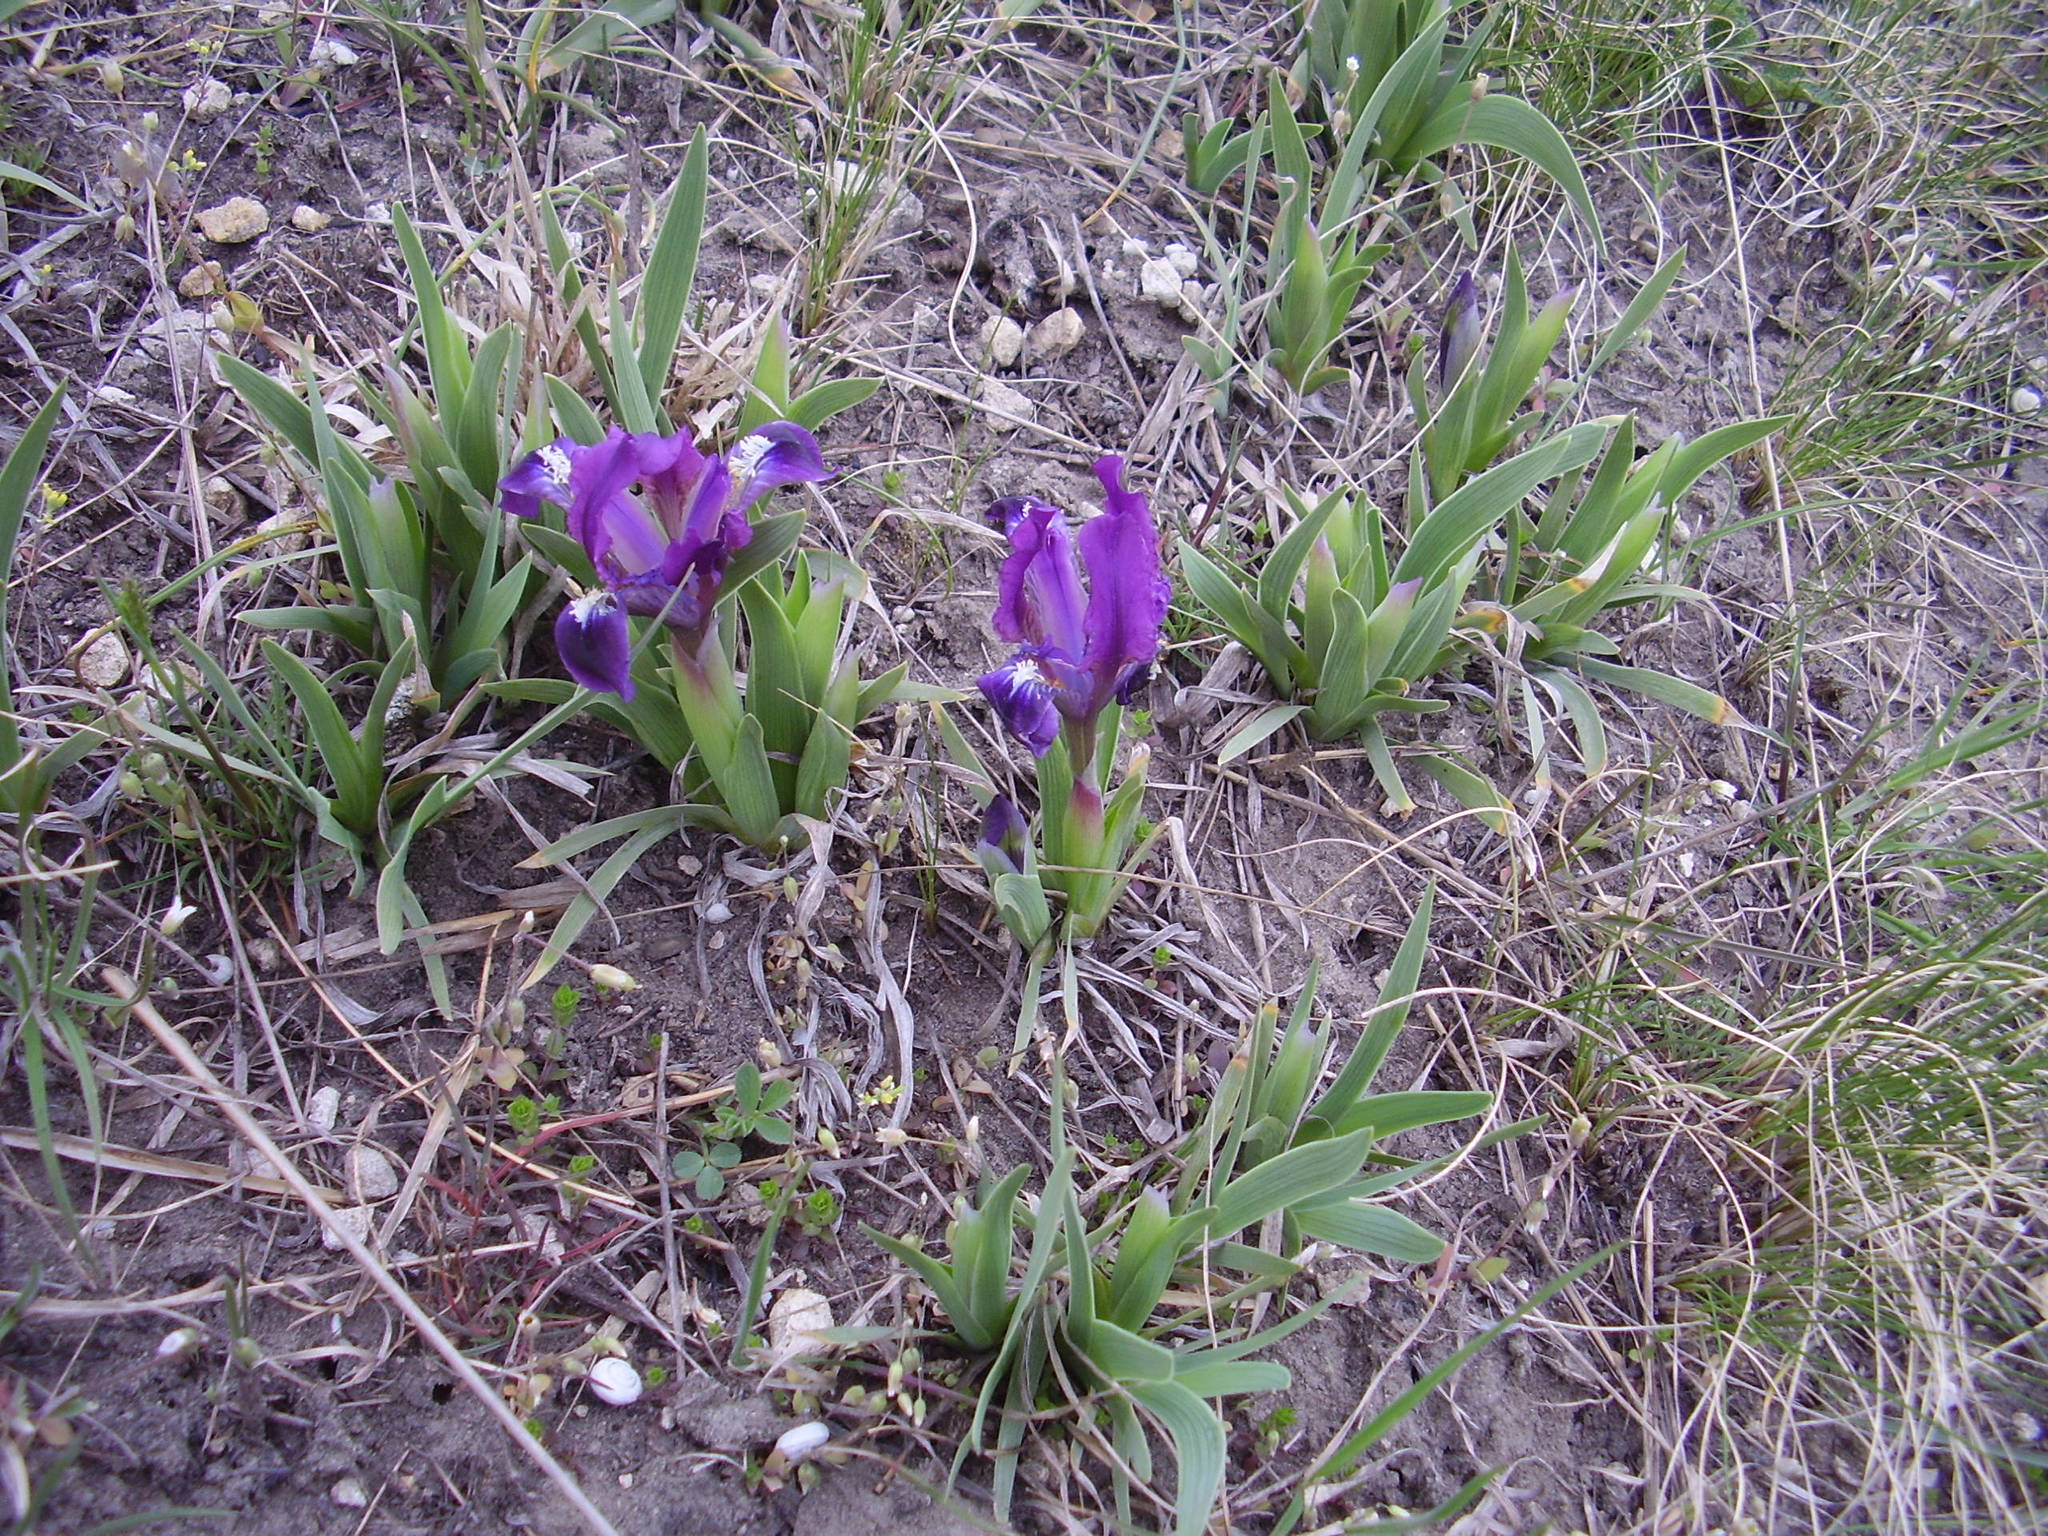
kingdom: Plantae
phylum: Tracheophyta
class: Liliopsida
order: Asparagales
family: Iridaceae
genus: Iris
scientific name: Iris pumila
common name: Dwarf iris
